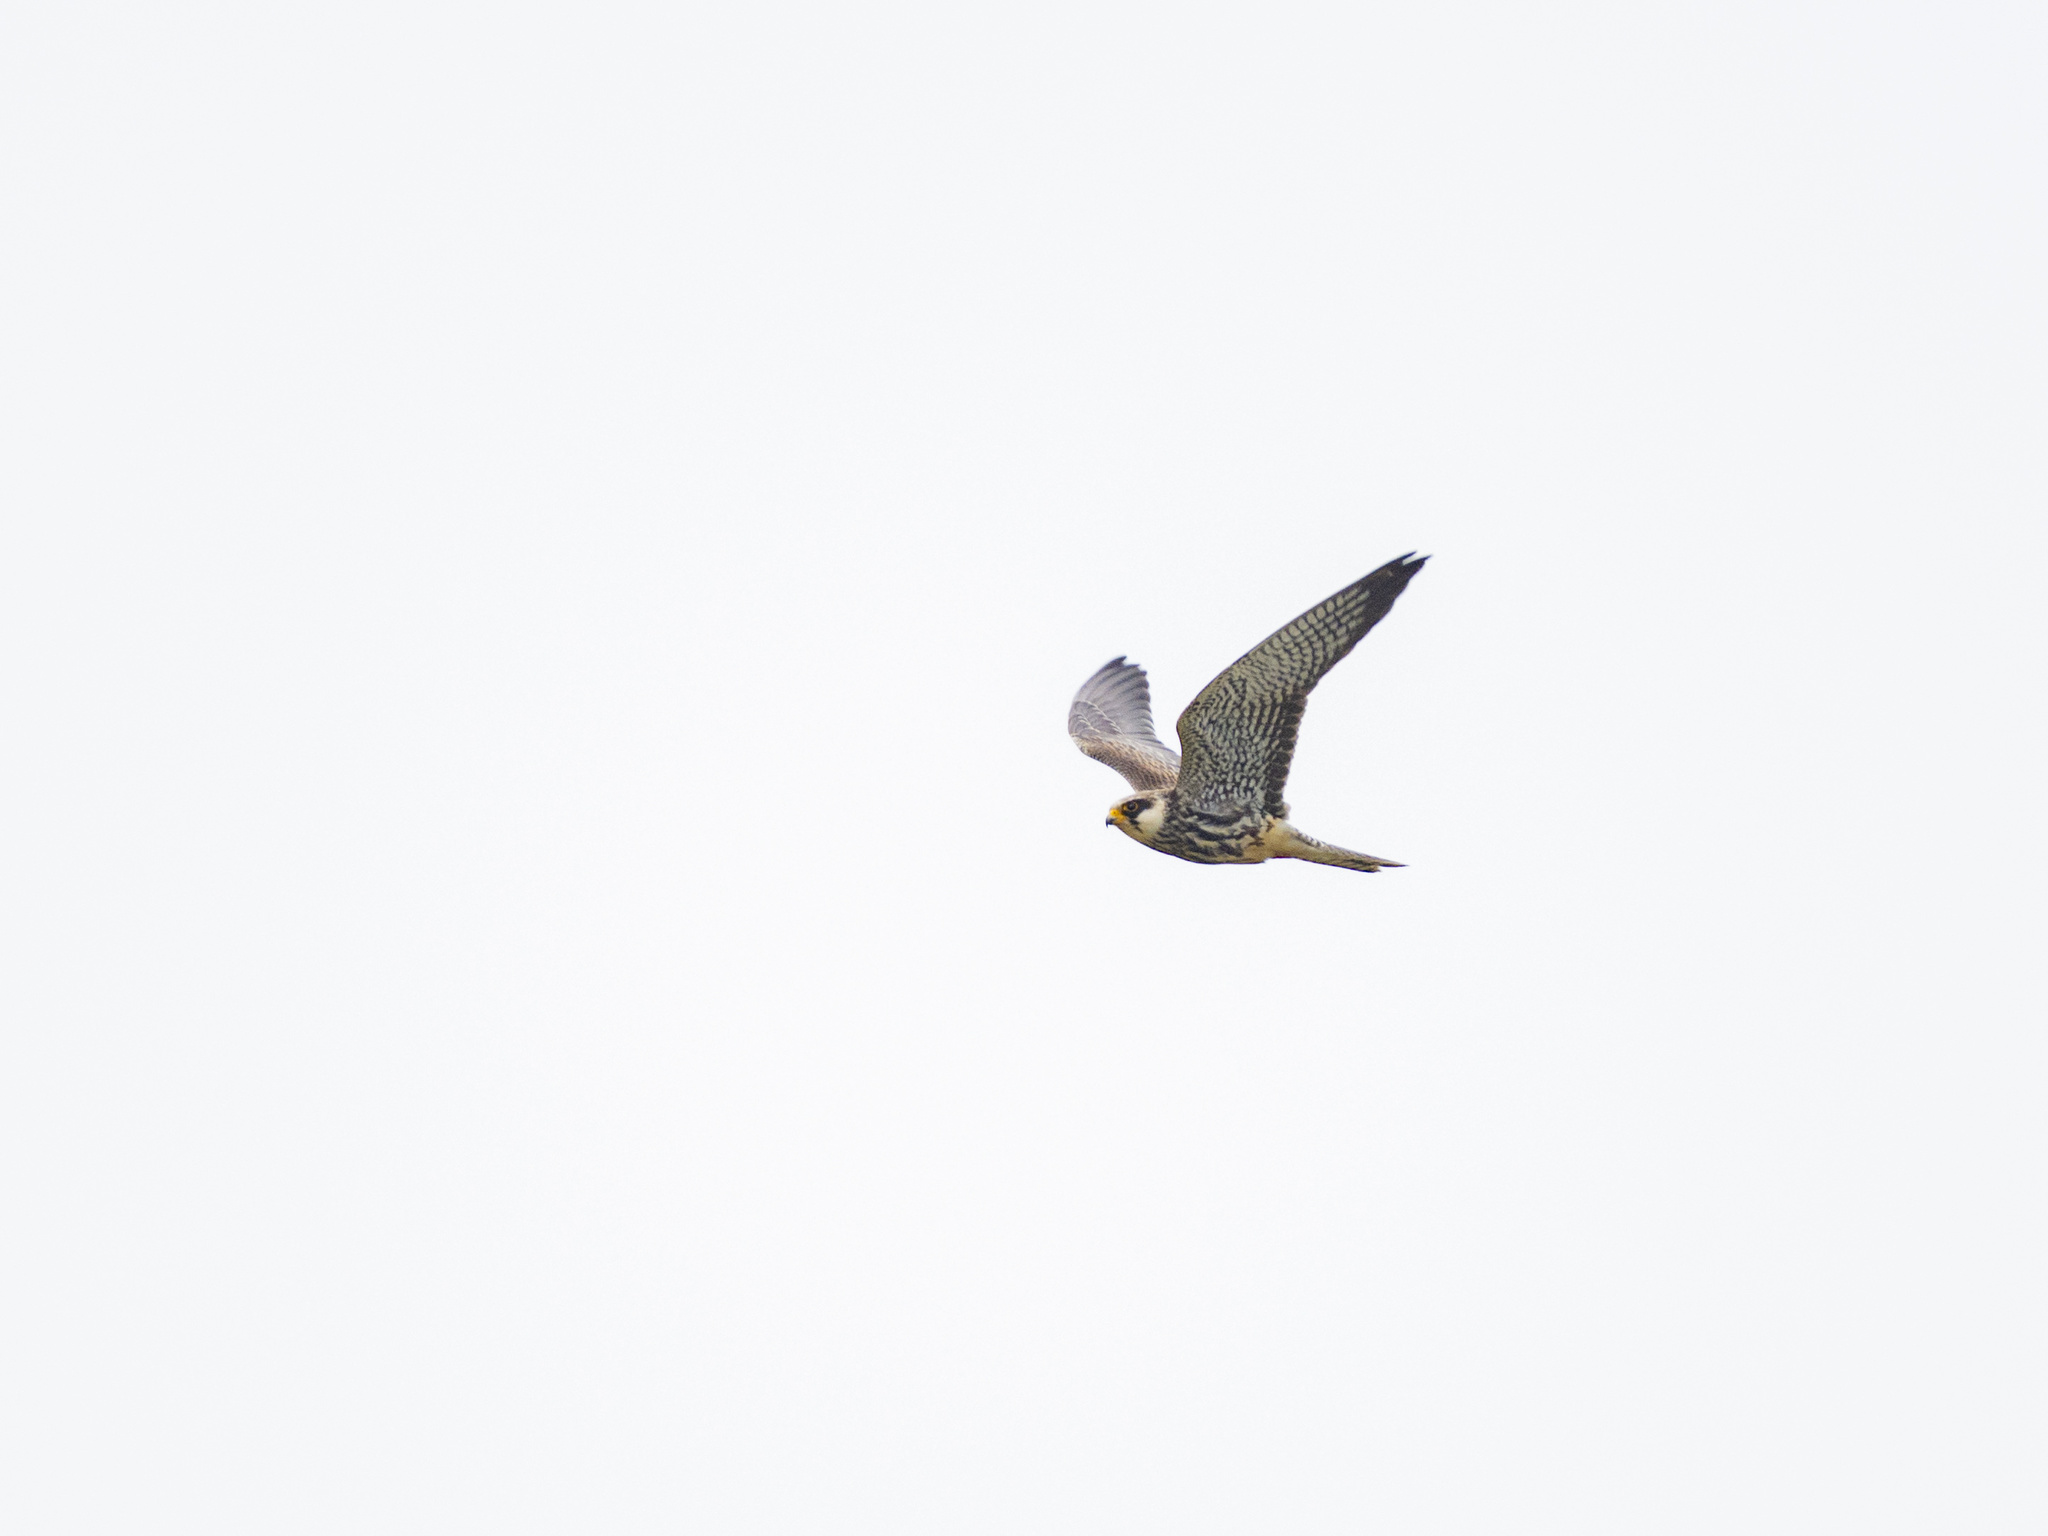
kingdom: Animalia
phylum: Chordata
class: Aves
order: Falconiformes
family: Falconidae
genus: Falco
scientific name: Falco amurensis
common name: Amur falcon
